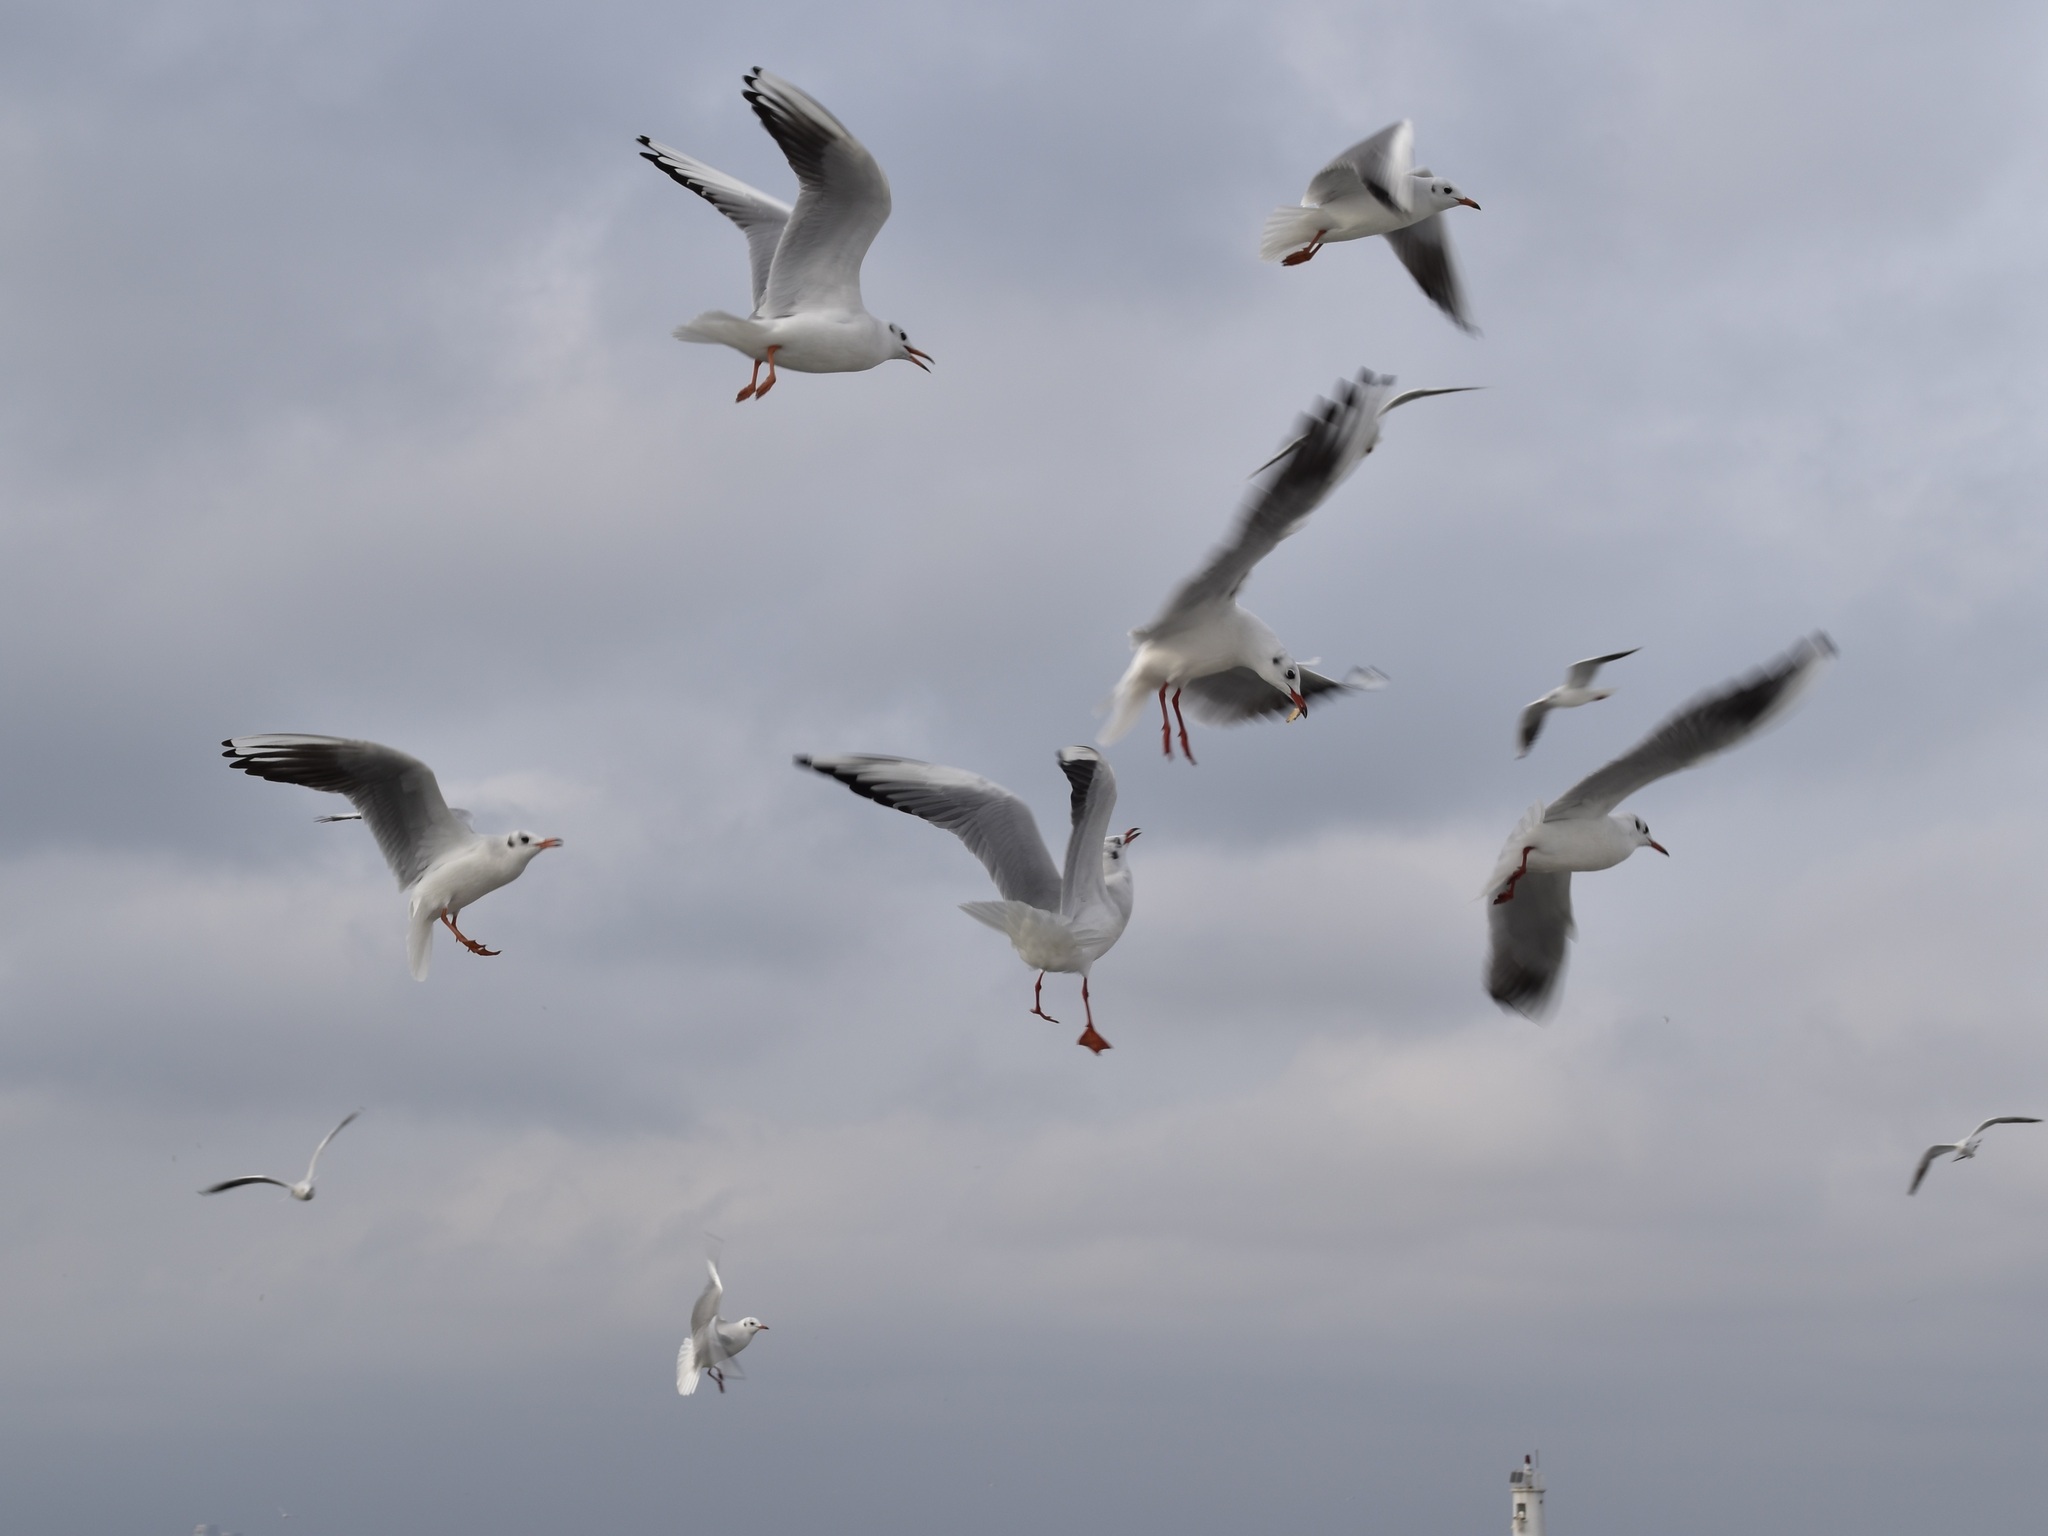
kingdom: Animalia
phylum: Chordata
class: Aves
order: Charadriiformes
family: Laridae
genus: Chroicocephalus
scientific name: Chroicocephalus ridibundus
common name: Black-headed gull
